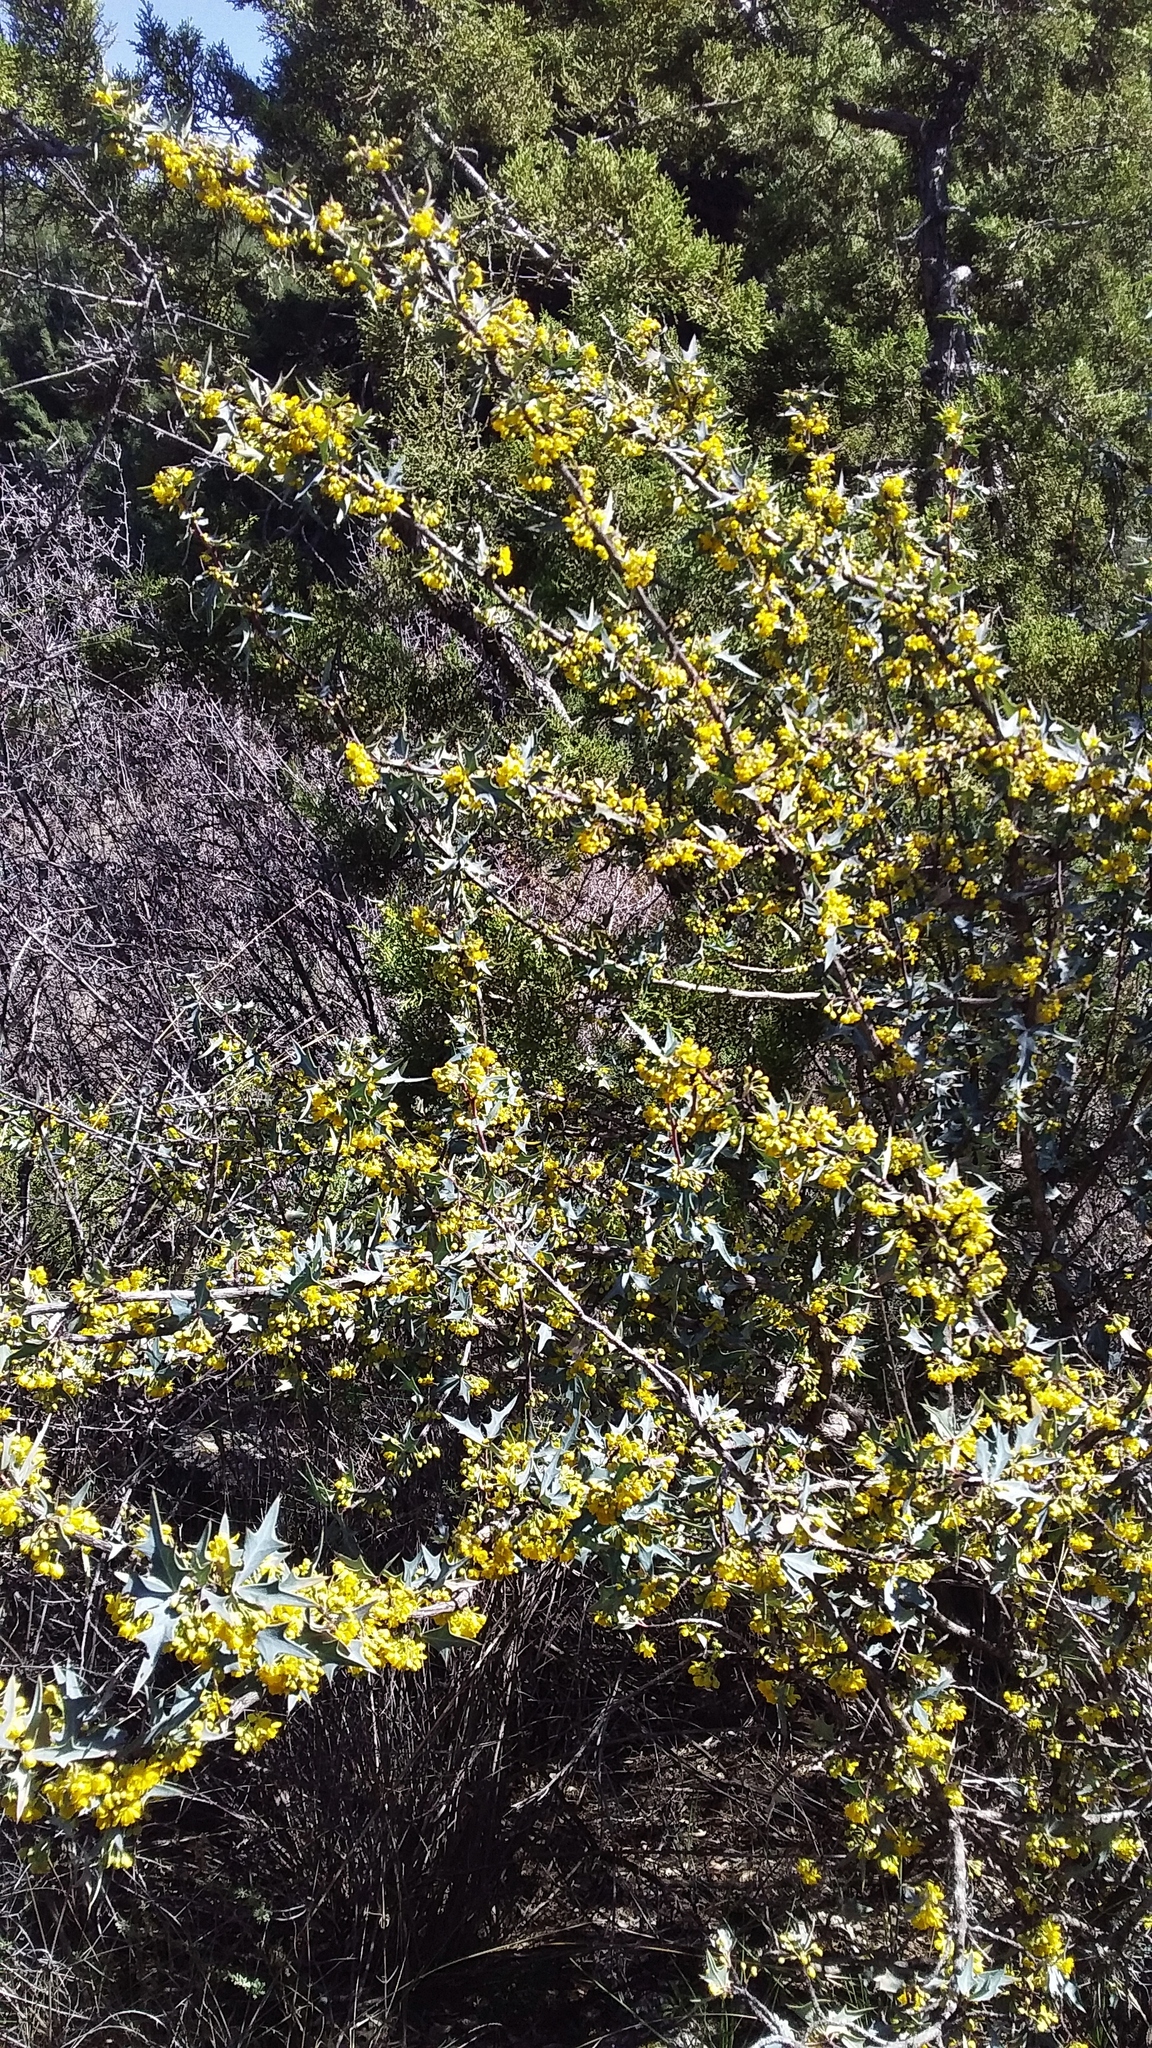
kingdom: Plantae
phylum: Tracheophyta
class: Magnoliopsida
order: Ranunculales
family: Berberidaceae
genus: Alloberberis
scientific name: Alloberberis trifoliolata
